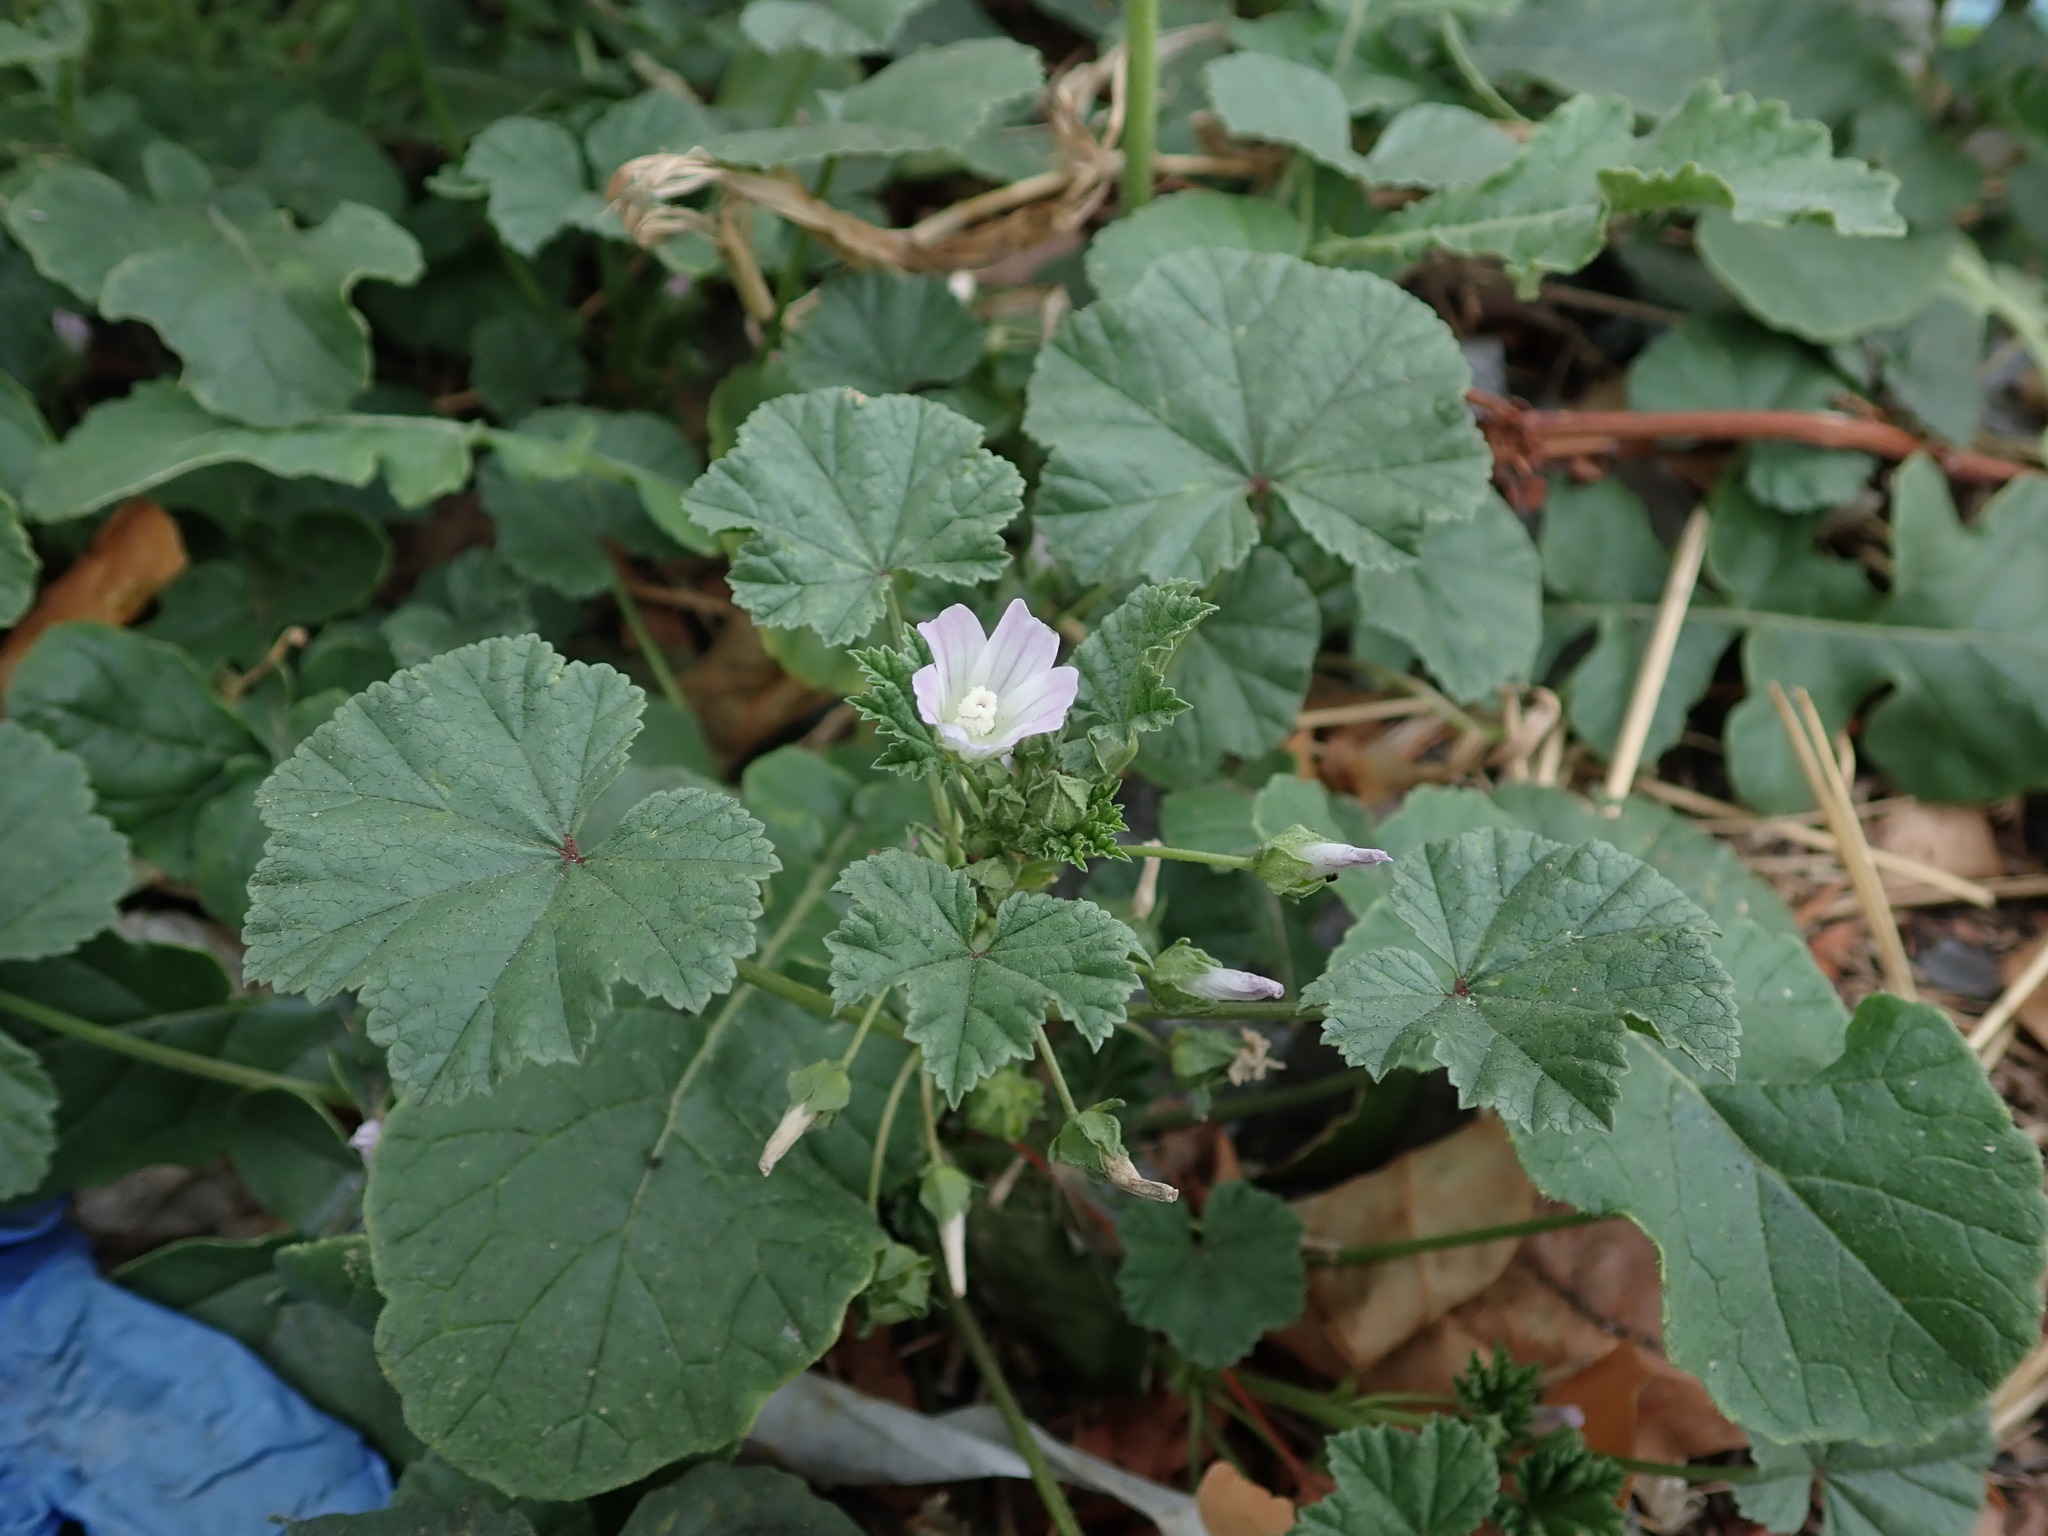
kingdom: Plantae
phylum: Tracheophyta
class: Magnoliopsida
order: Malvales
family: Malvaceae
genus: Malva
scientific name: Malva neglecta
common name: Common mallow
